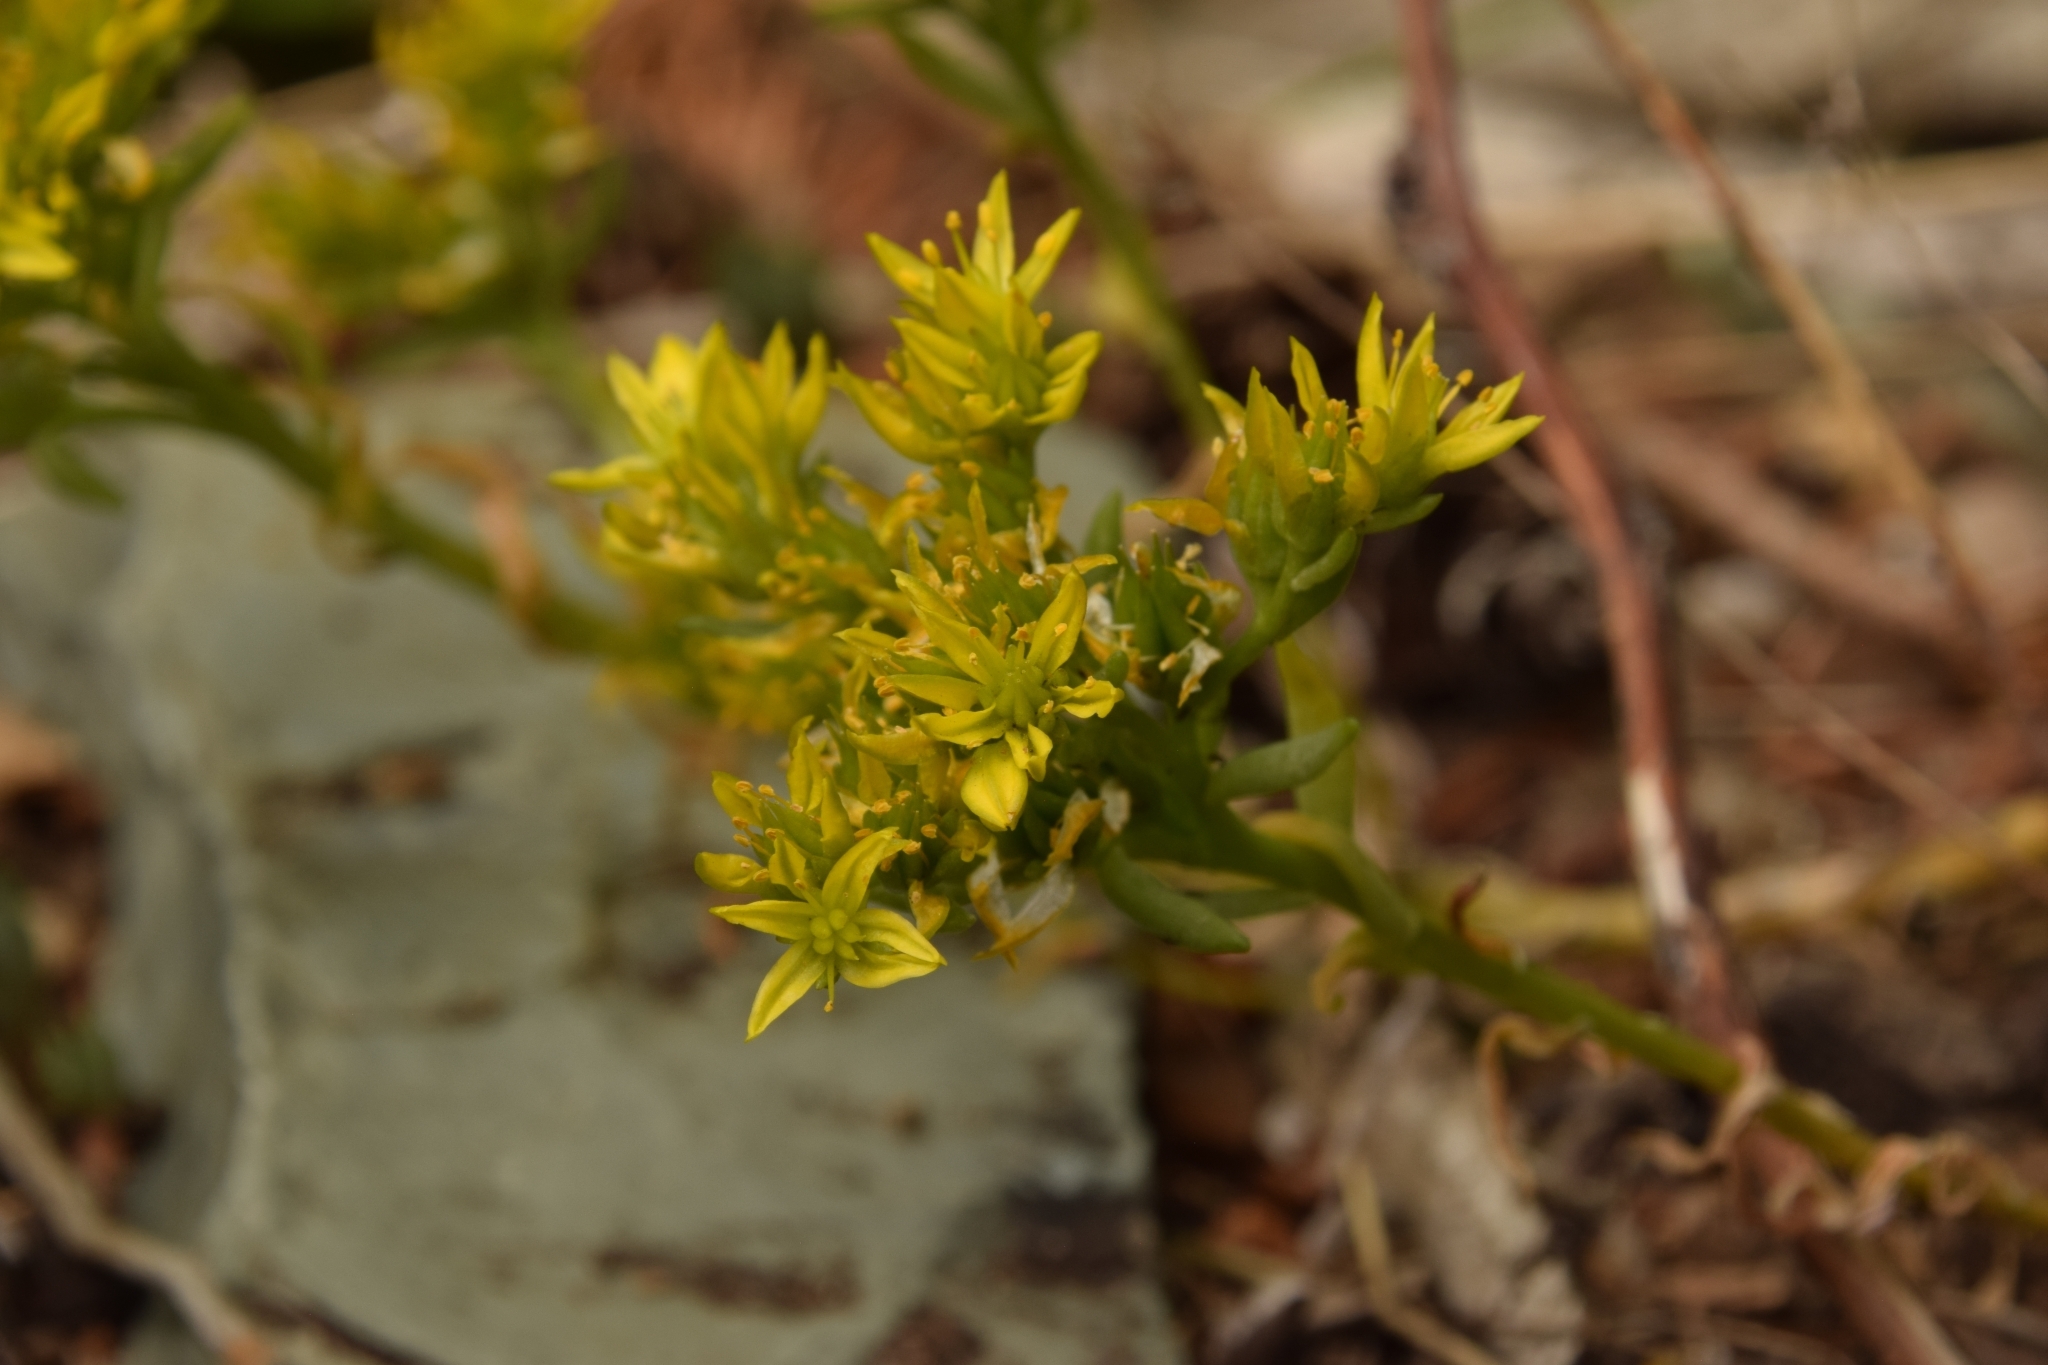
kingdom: Plantae
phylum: Tracheophyta
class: Magnoliopsida
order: Saxifragales
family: Crassulaceae
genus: Sedum
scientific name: Sedum lanceolatum
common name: Common stonecrop
